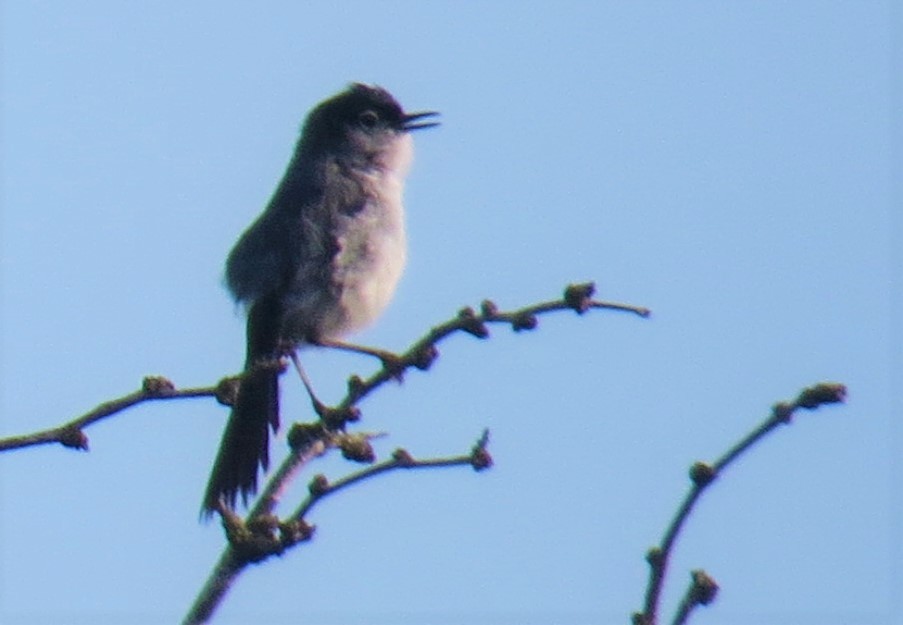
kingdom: Animalia
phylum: Chordata
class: Aves
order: Passeriformes
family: Polioptilidae
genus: Polioptila
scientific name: Polioptila melanura
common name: Black-tailed gnatcatcher
